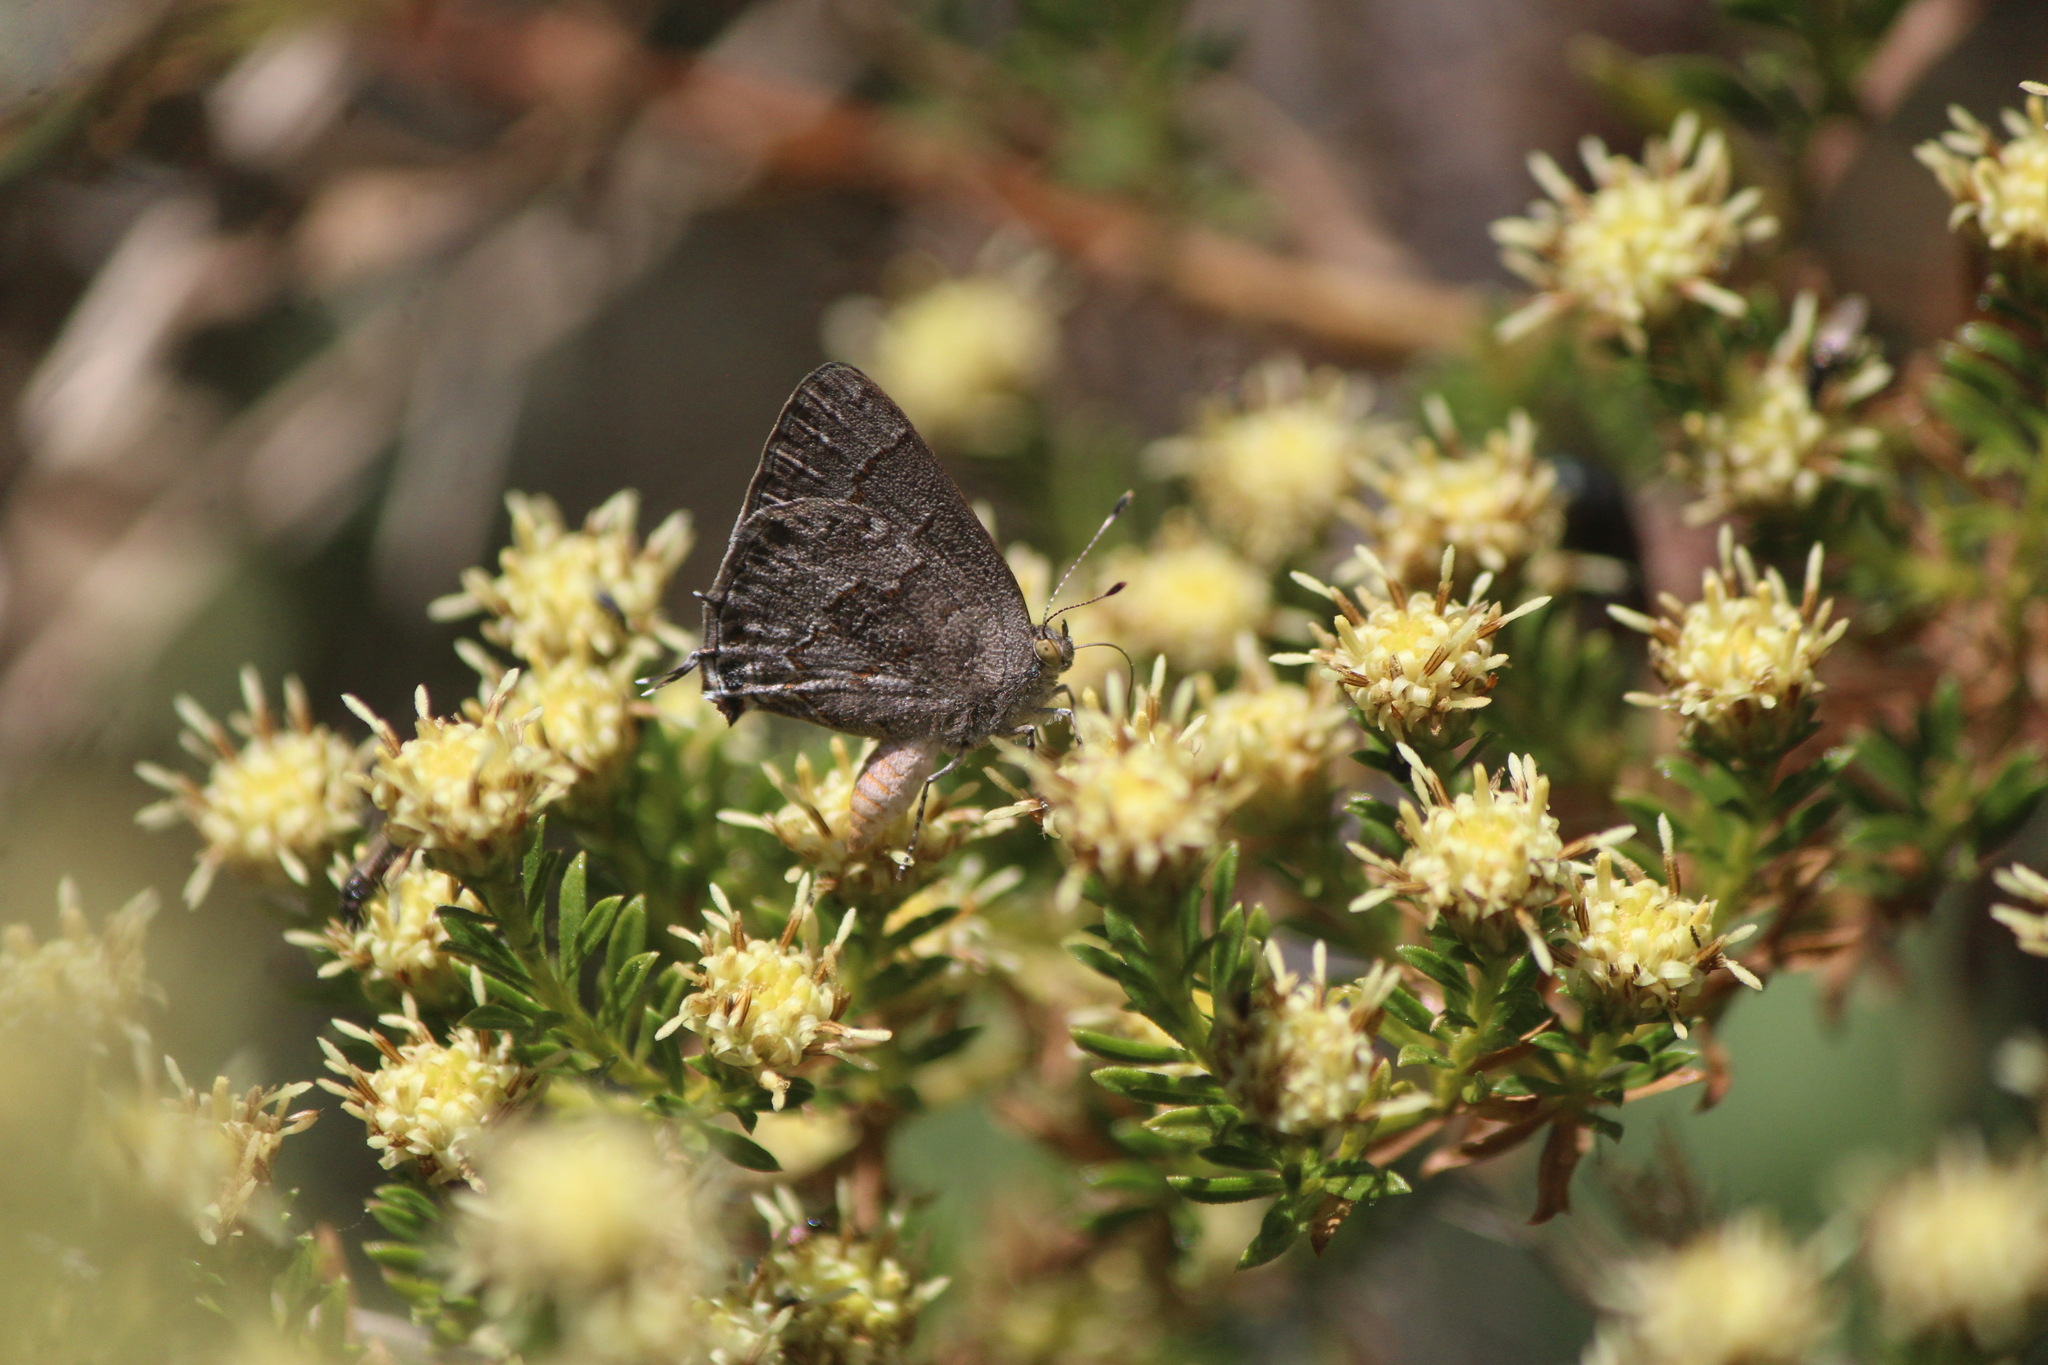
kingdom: Animalia
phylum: Arthropoda
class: Insecta
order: Lepidoptera
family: Lycaenidae
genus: Ministrymon
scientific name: Ministrymon leda
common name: Leda ministreak
